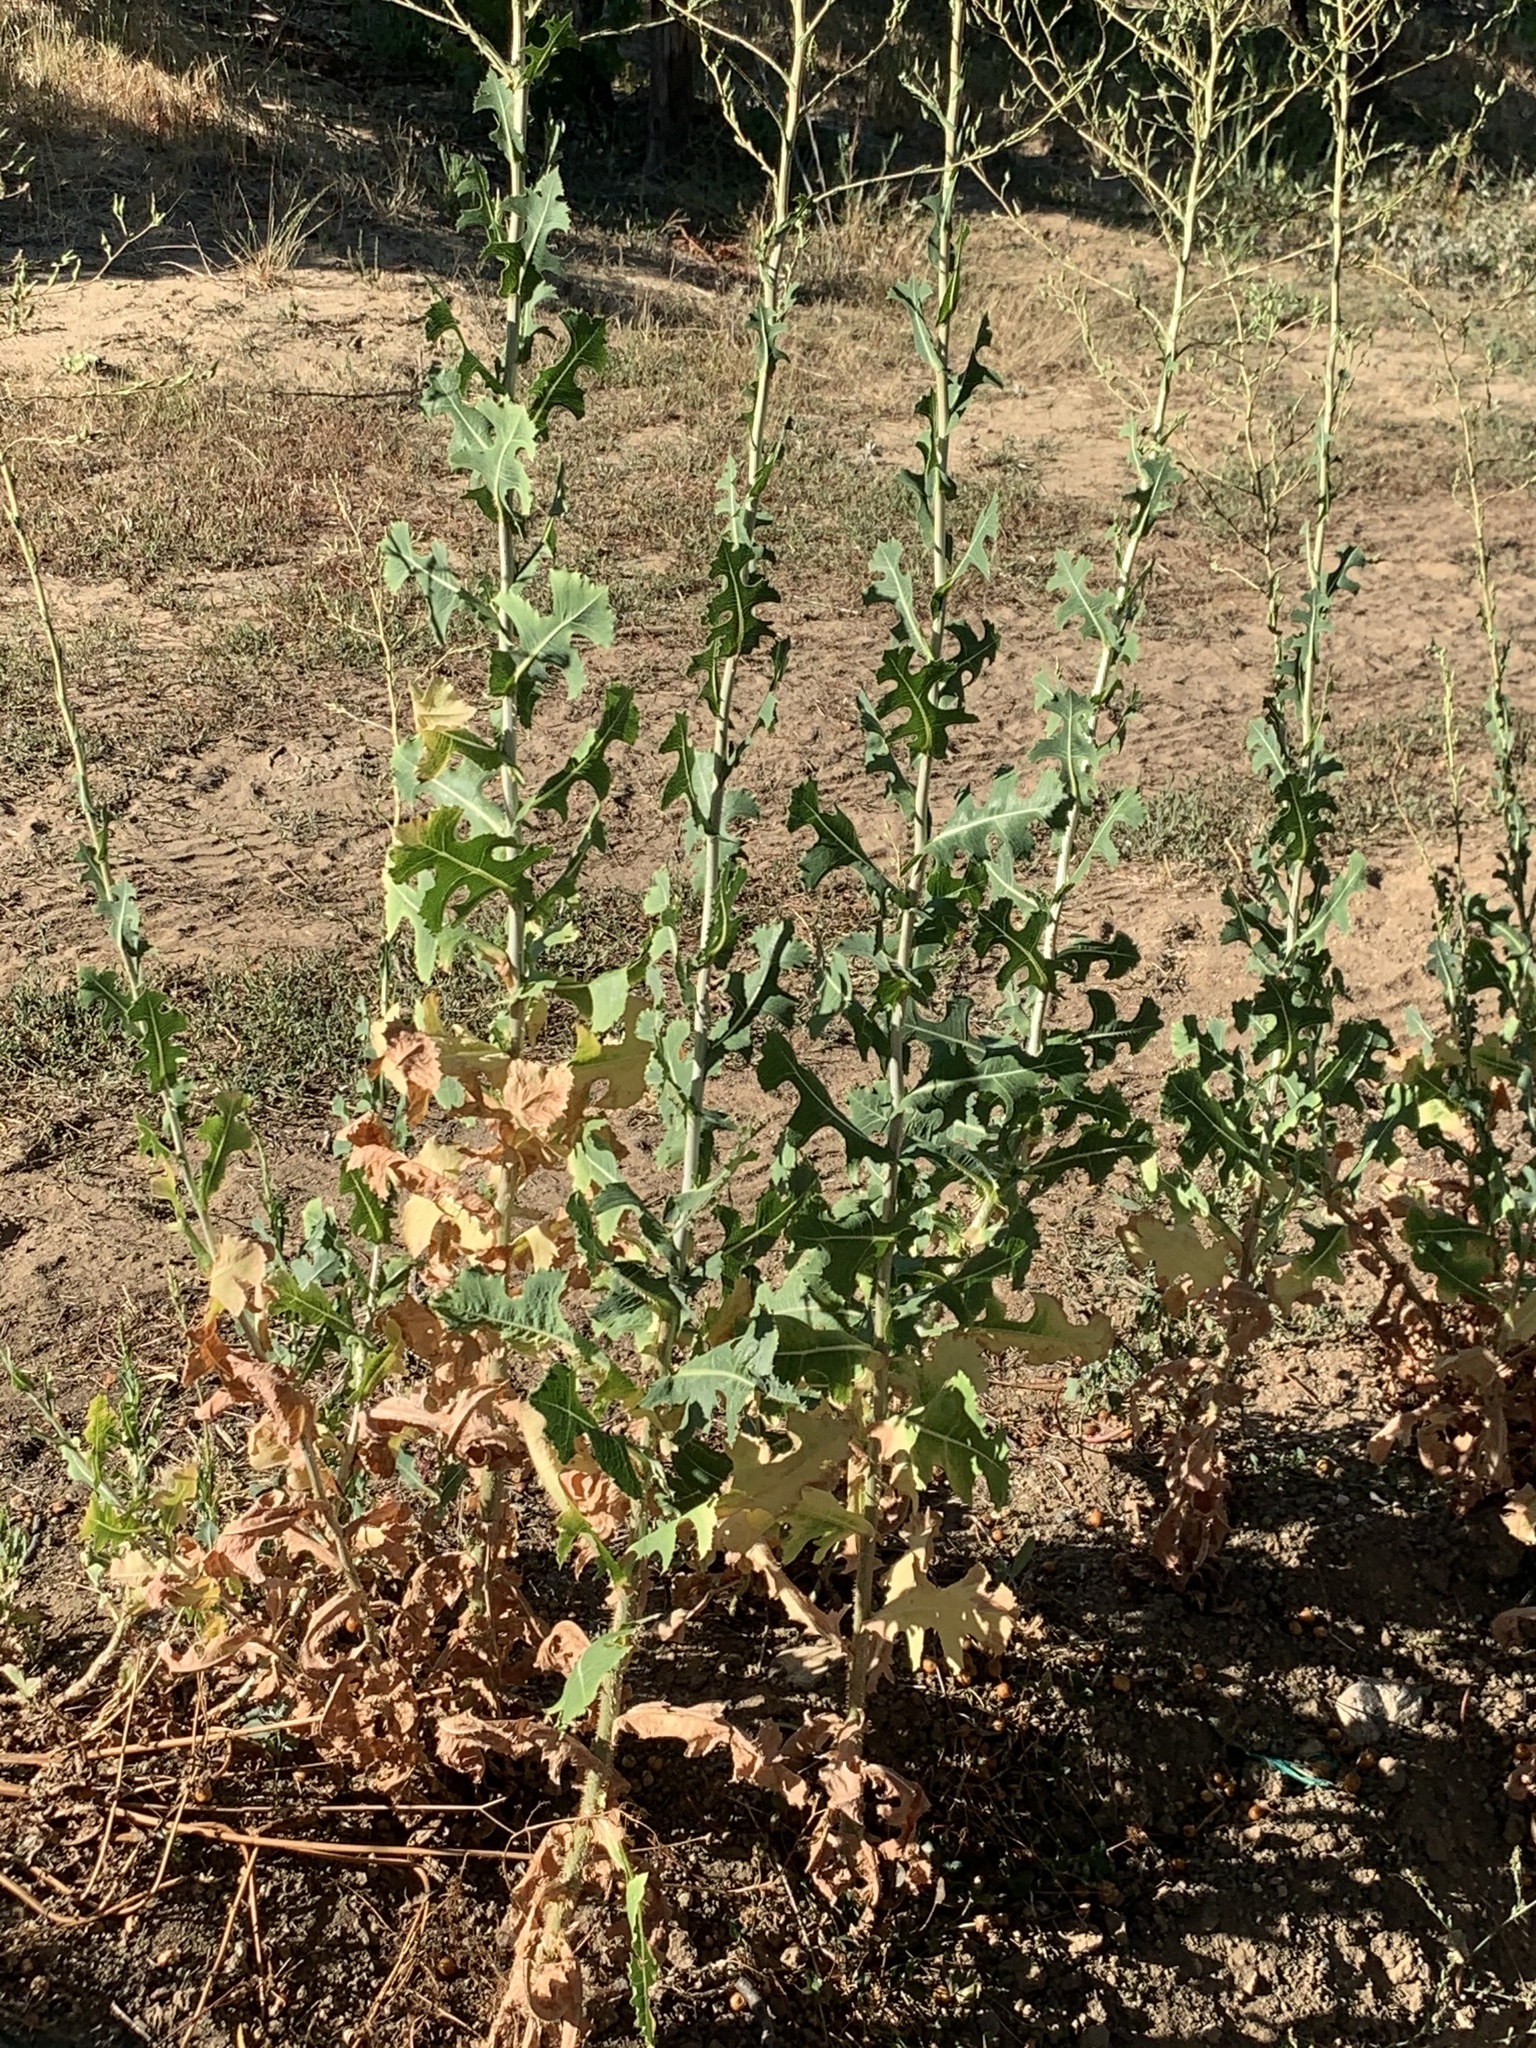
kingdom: Plantae
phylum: Tracheophyta
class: Magnoliopsida
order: Asterales
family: Asteraceae
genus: Lactuca
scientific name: Lactuca serriola
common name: Prickly lettuce
